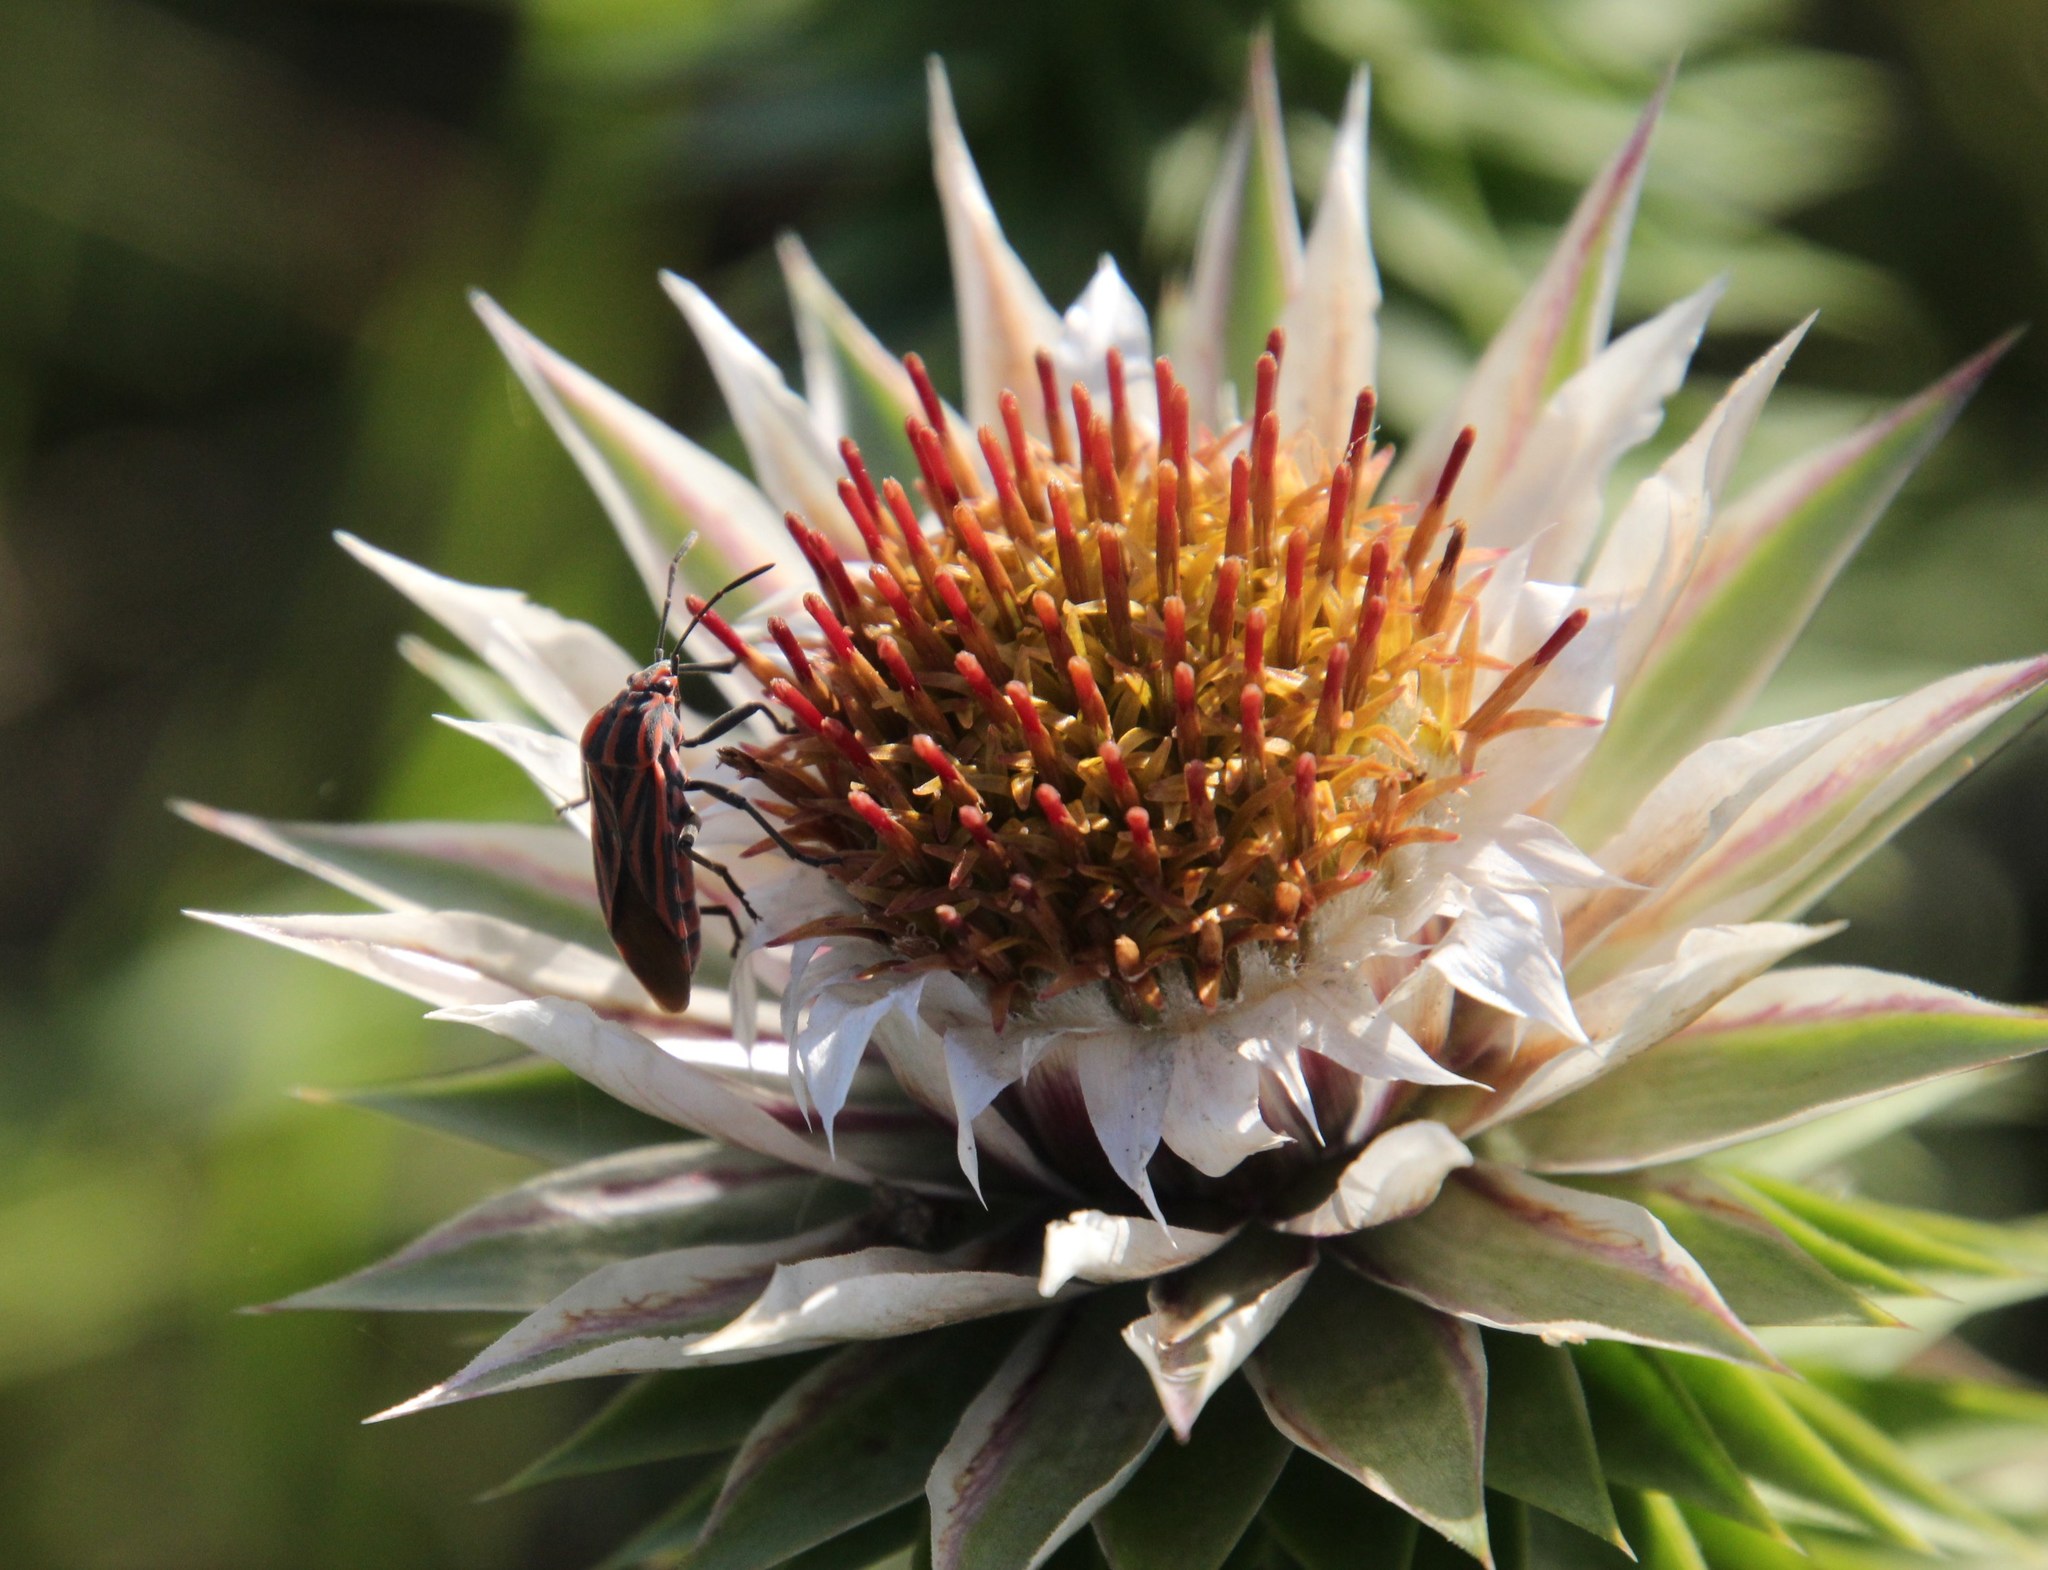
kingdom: Plantae
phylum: Tracheophyta
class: Magnoliopsida
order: Asterales
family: Asteraceae
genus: Macledium
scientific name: Macledium zeyheri
